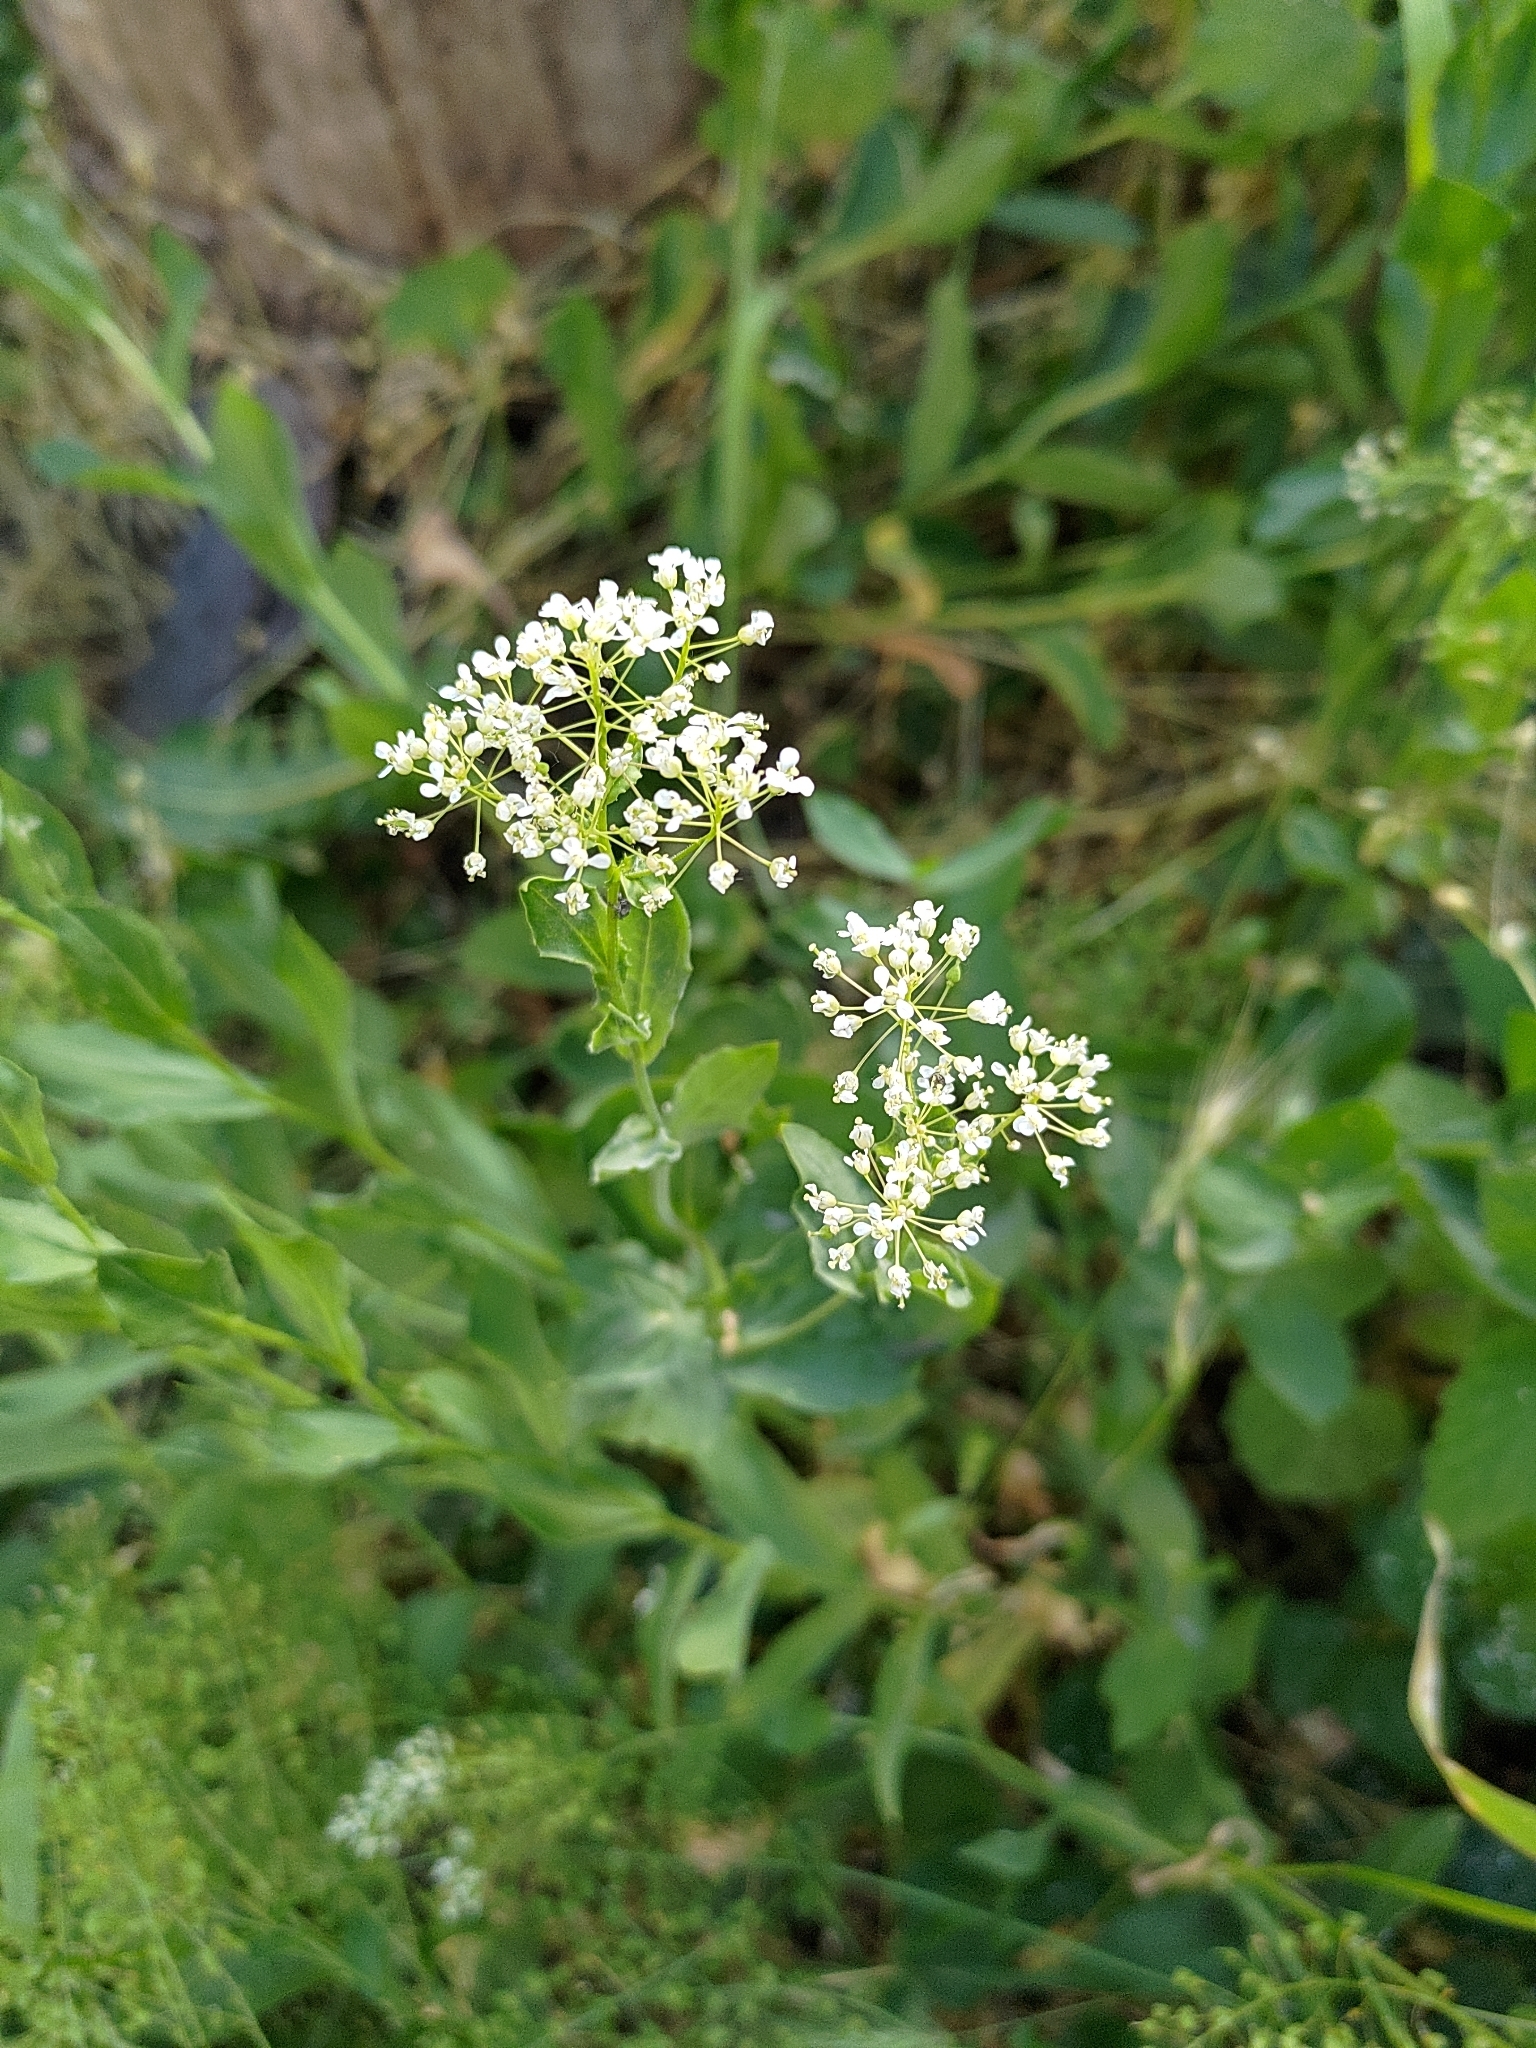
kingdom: Plantae
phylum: Tracheophyta
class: Magnoliopsida
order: Brassicales
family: Brassicaceae
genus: Lepidium
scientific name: Lepidium draba
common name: Hoary cress
